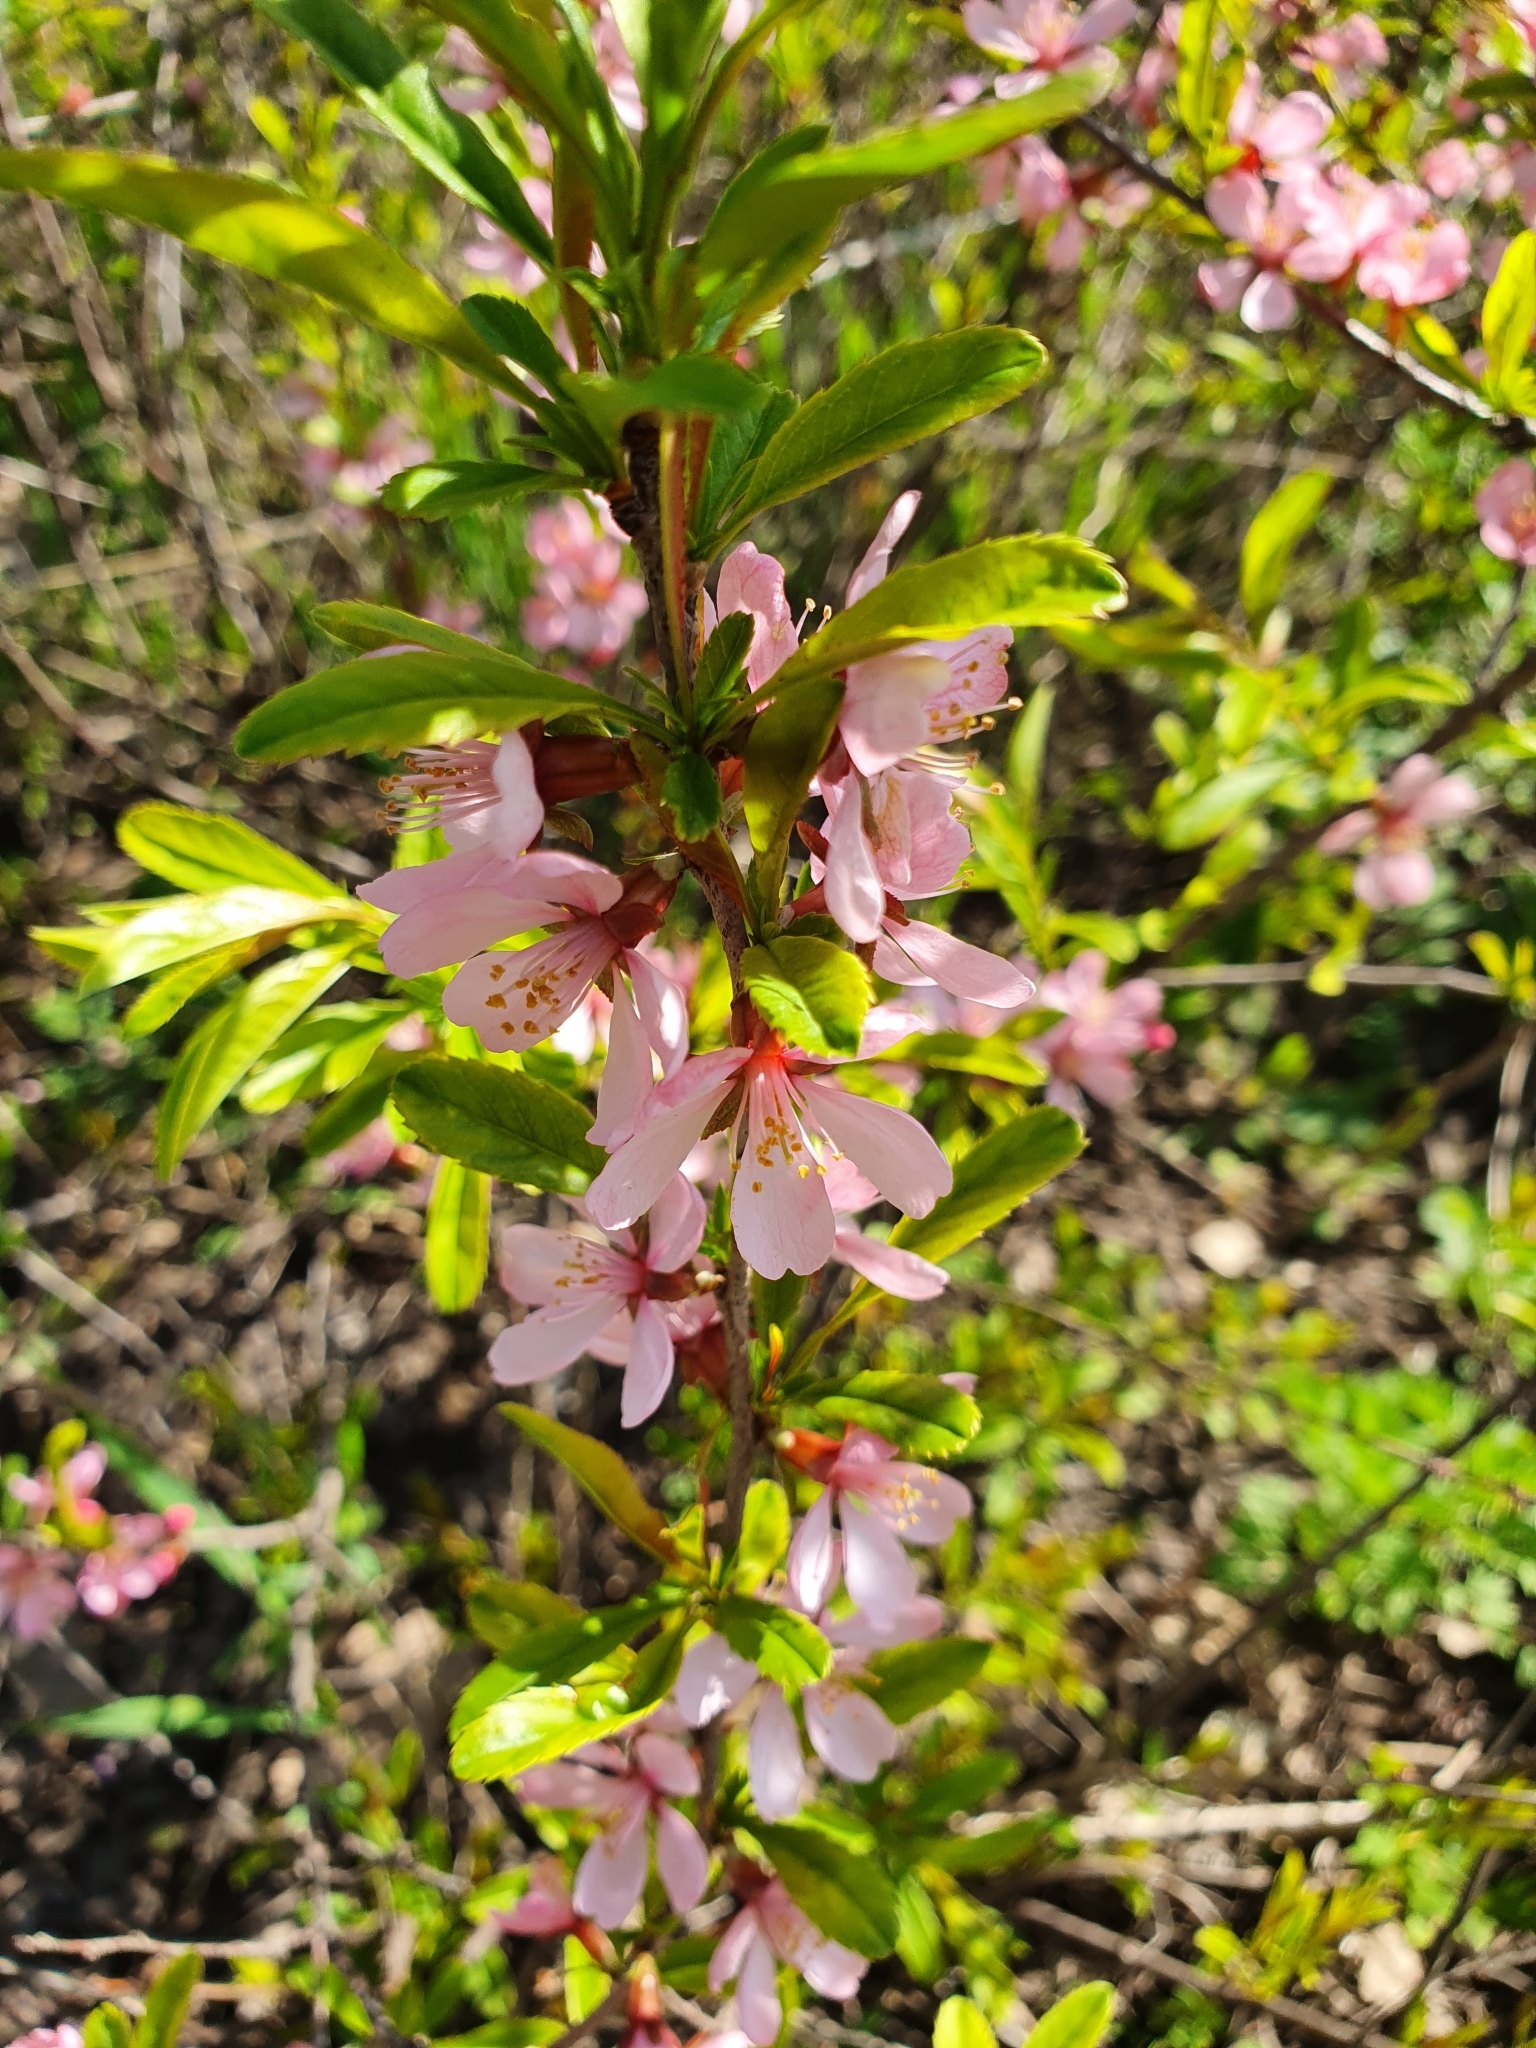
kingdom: Plantae
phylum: Tracheophyta
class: Magnoliopsida
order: Rosales
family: Rosaceae
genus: Prunus
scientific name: Prunus tenella
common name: Dwarf russian almond
